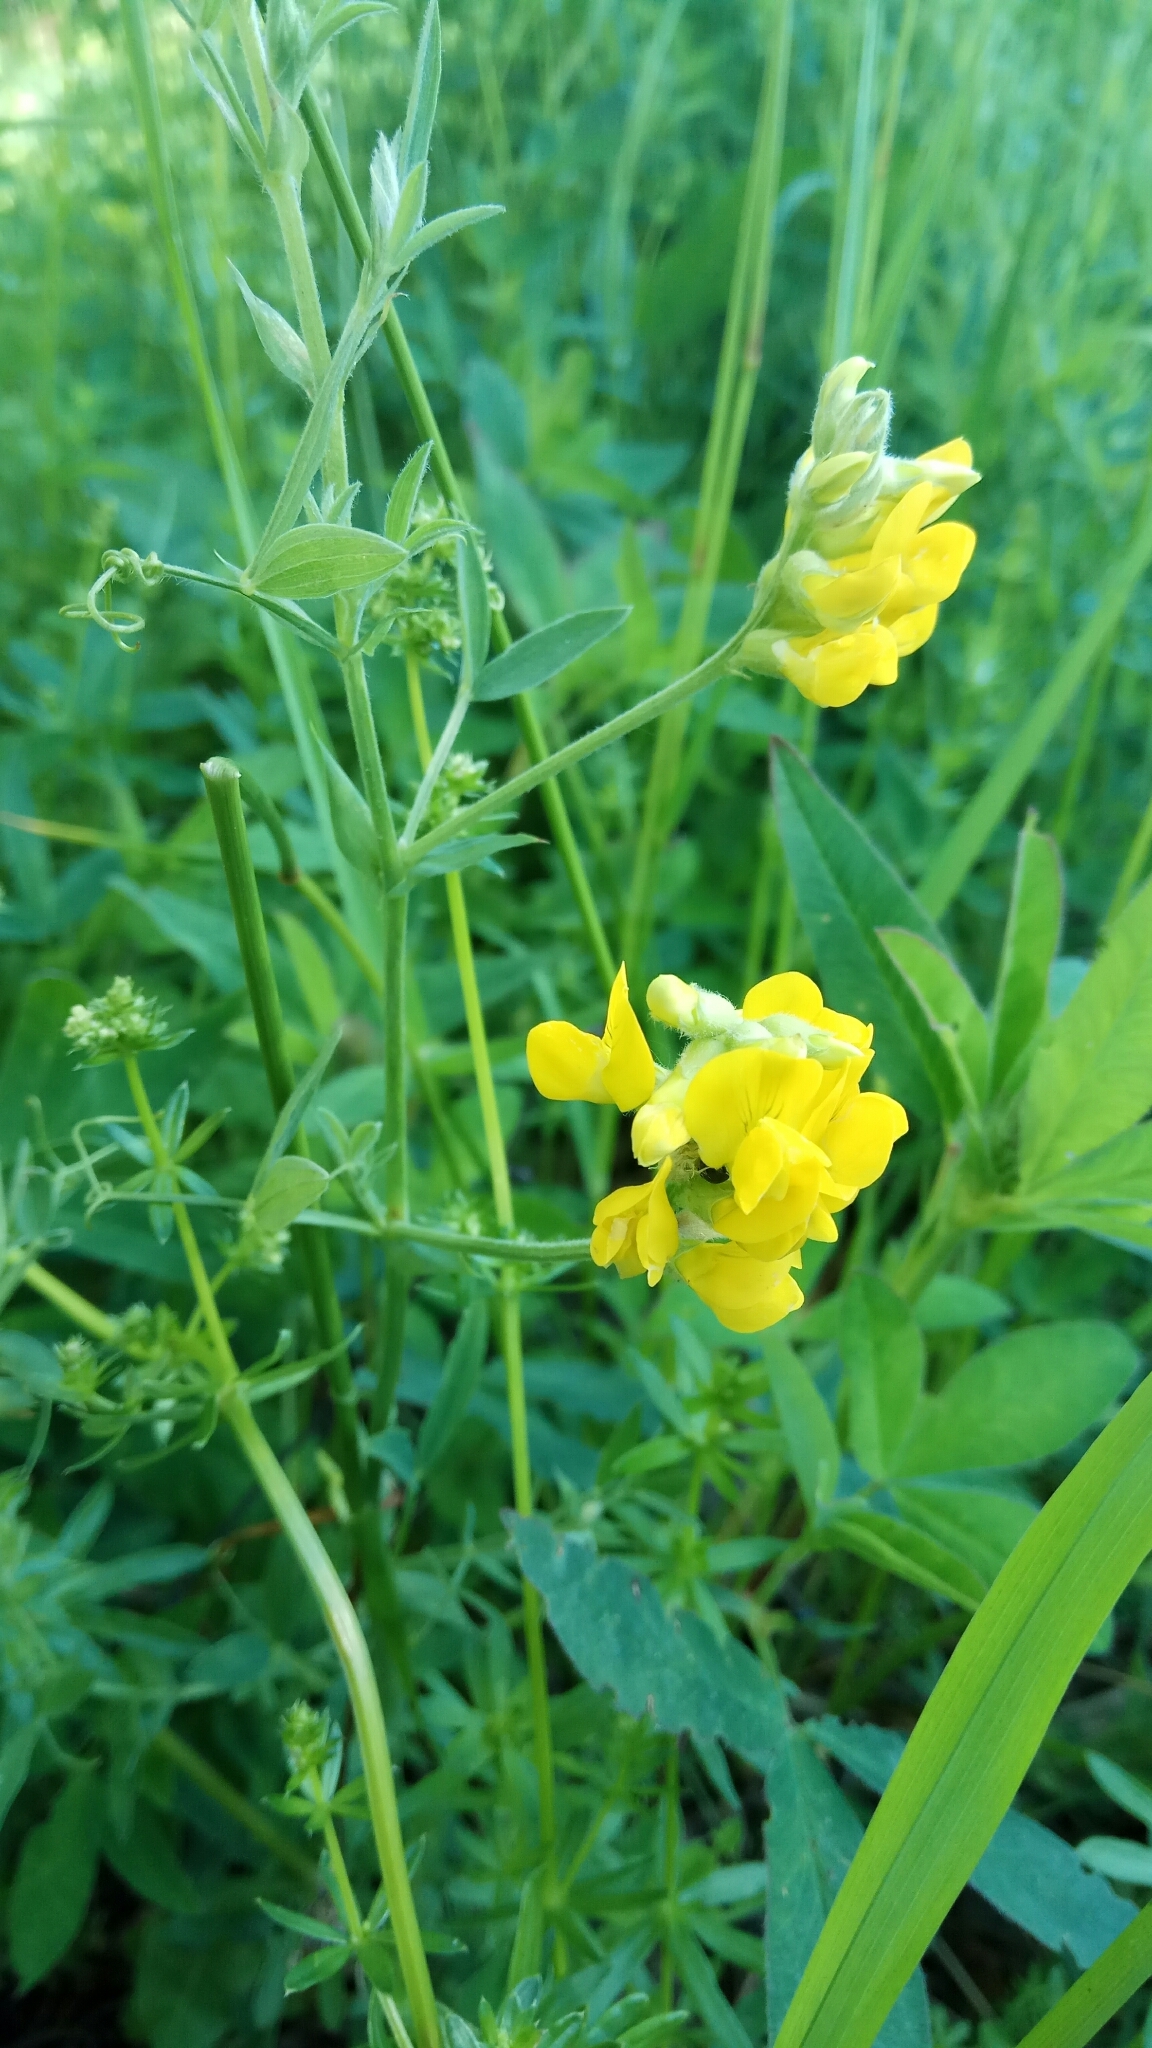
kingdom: Plantae
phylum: Tracheophyta
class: Magnoliopsida
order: Fabales
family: Fabaceae
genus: Lathyrus
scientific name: Lathyrus pratensis
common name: Meadow vetchling
